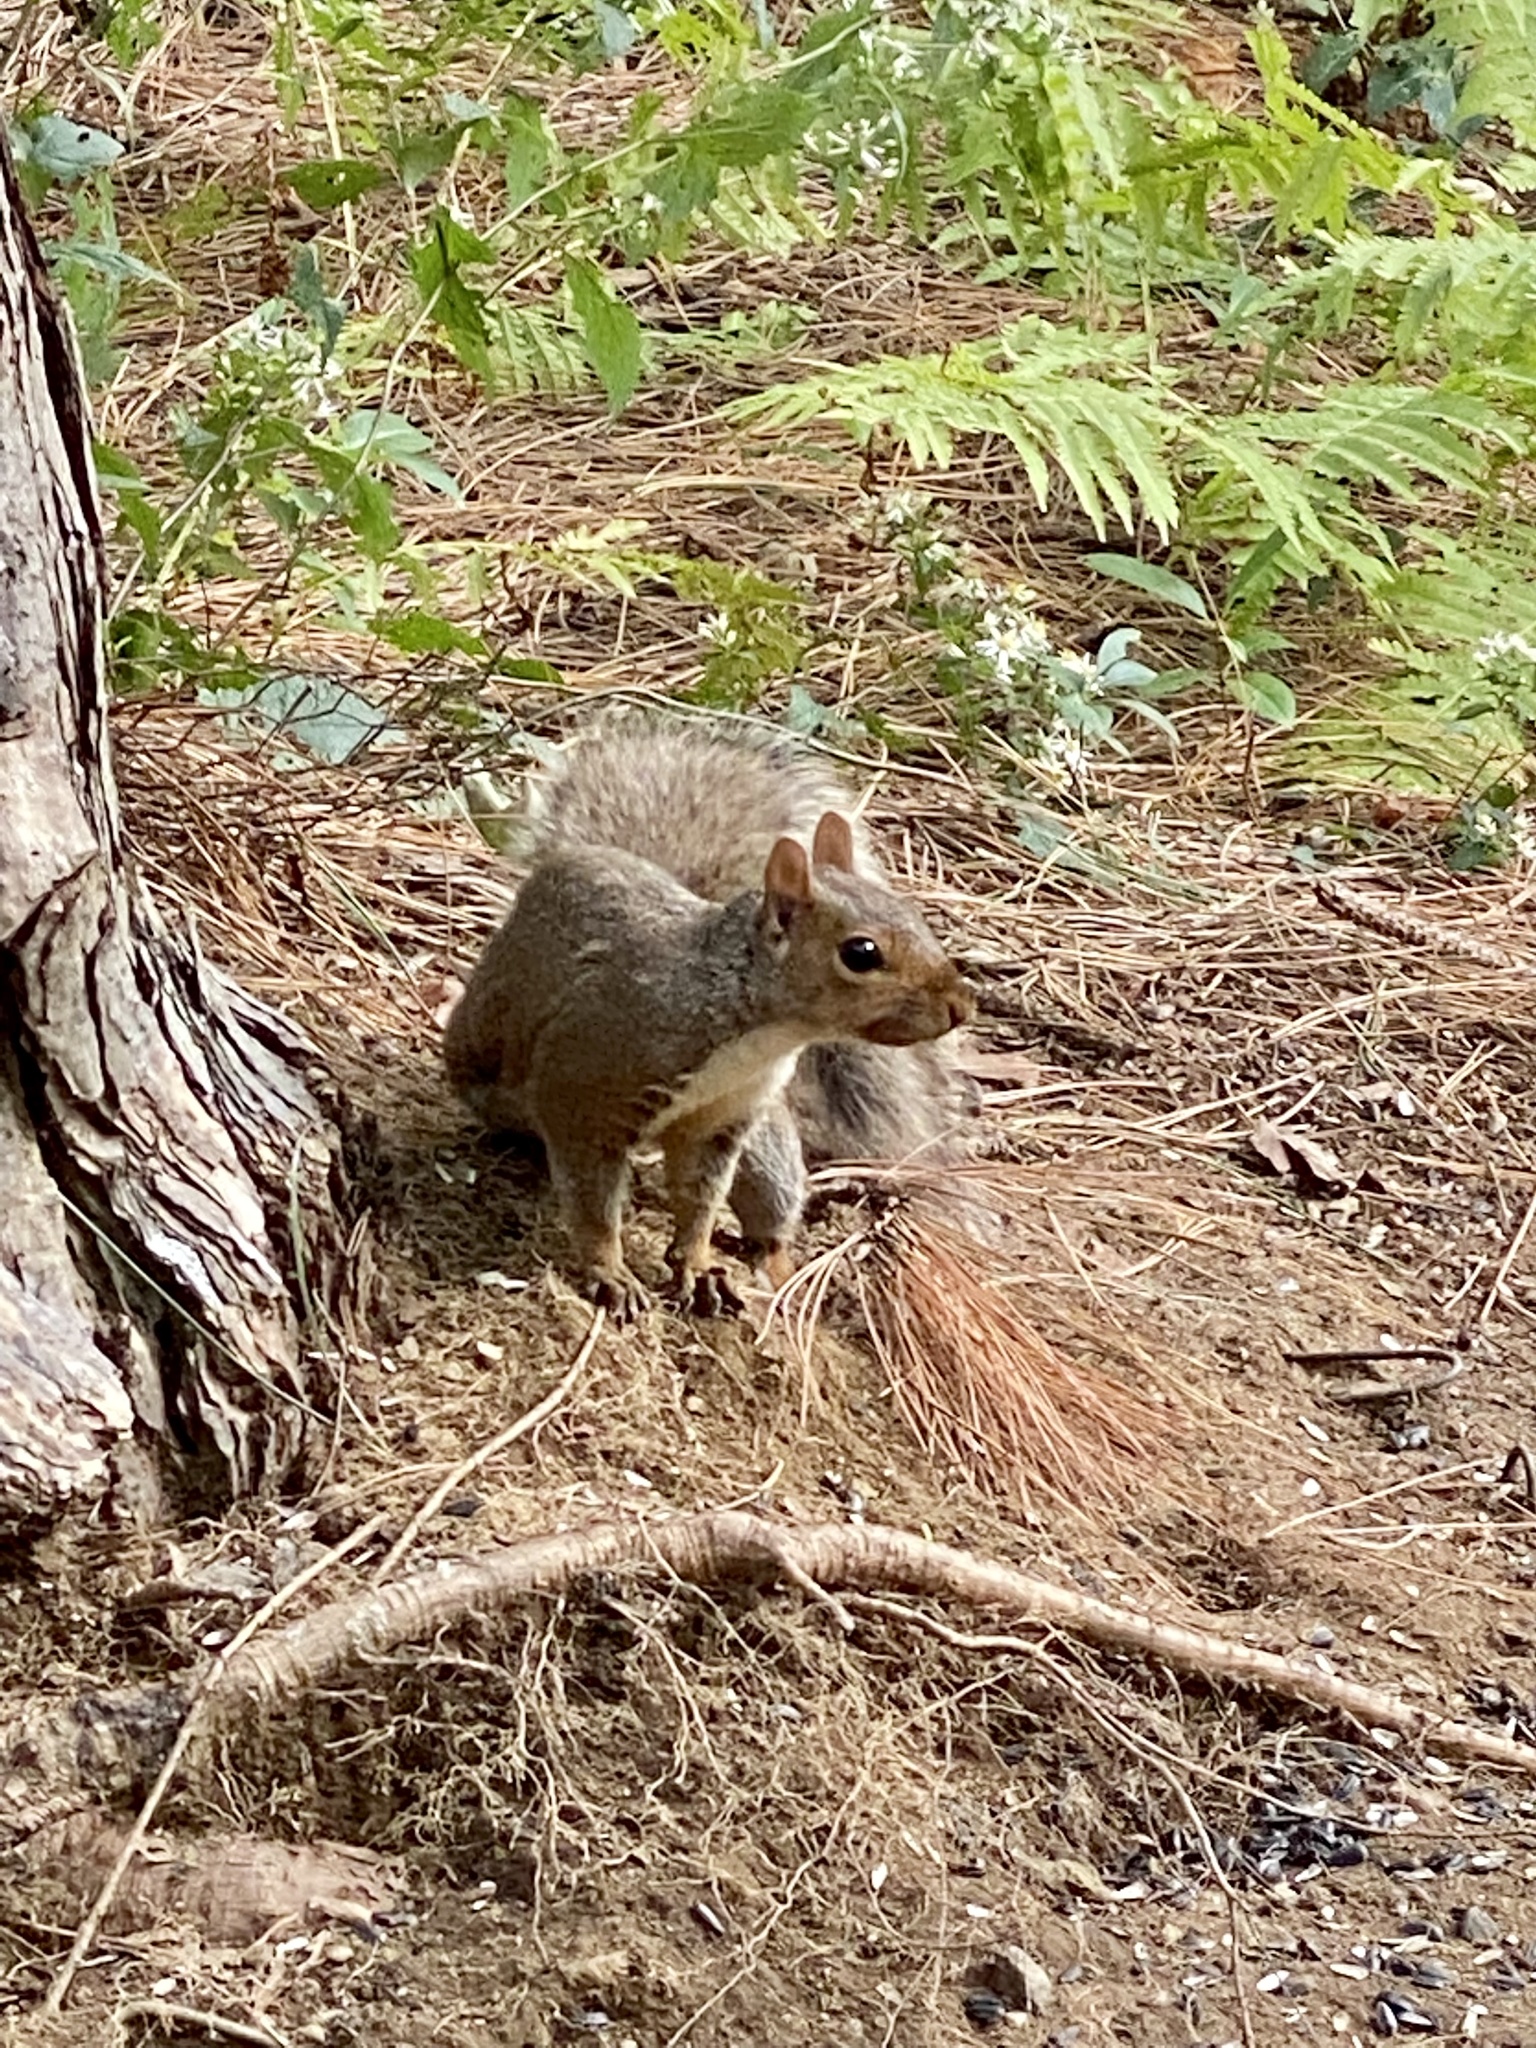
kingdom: Animalia
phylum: Chordata
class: Mammalia
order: Rodentia
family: Sciuridae
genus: Sciurus
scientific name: Sciurus carolinensis
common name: Eastern gray squirrel
